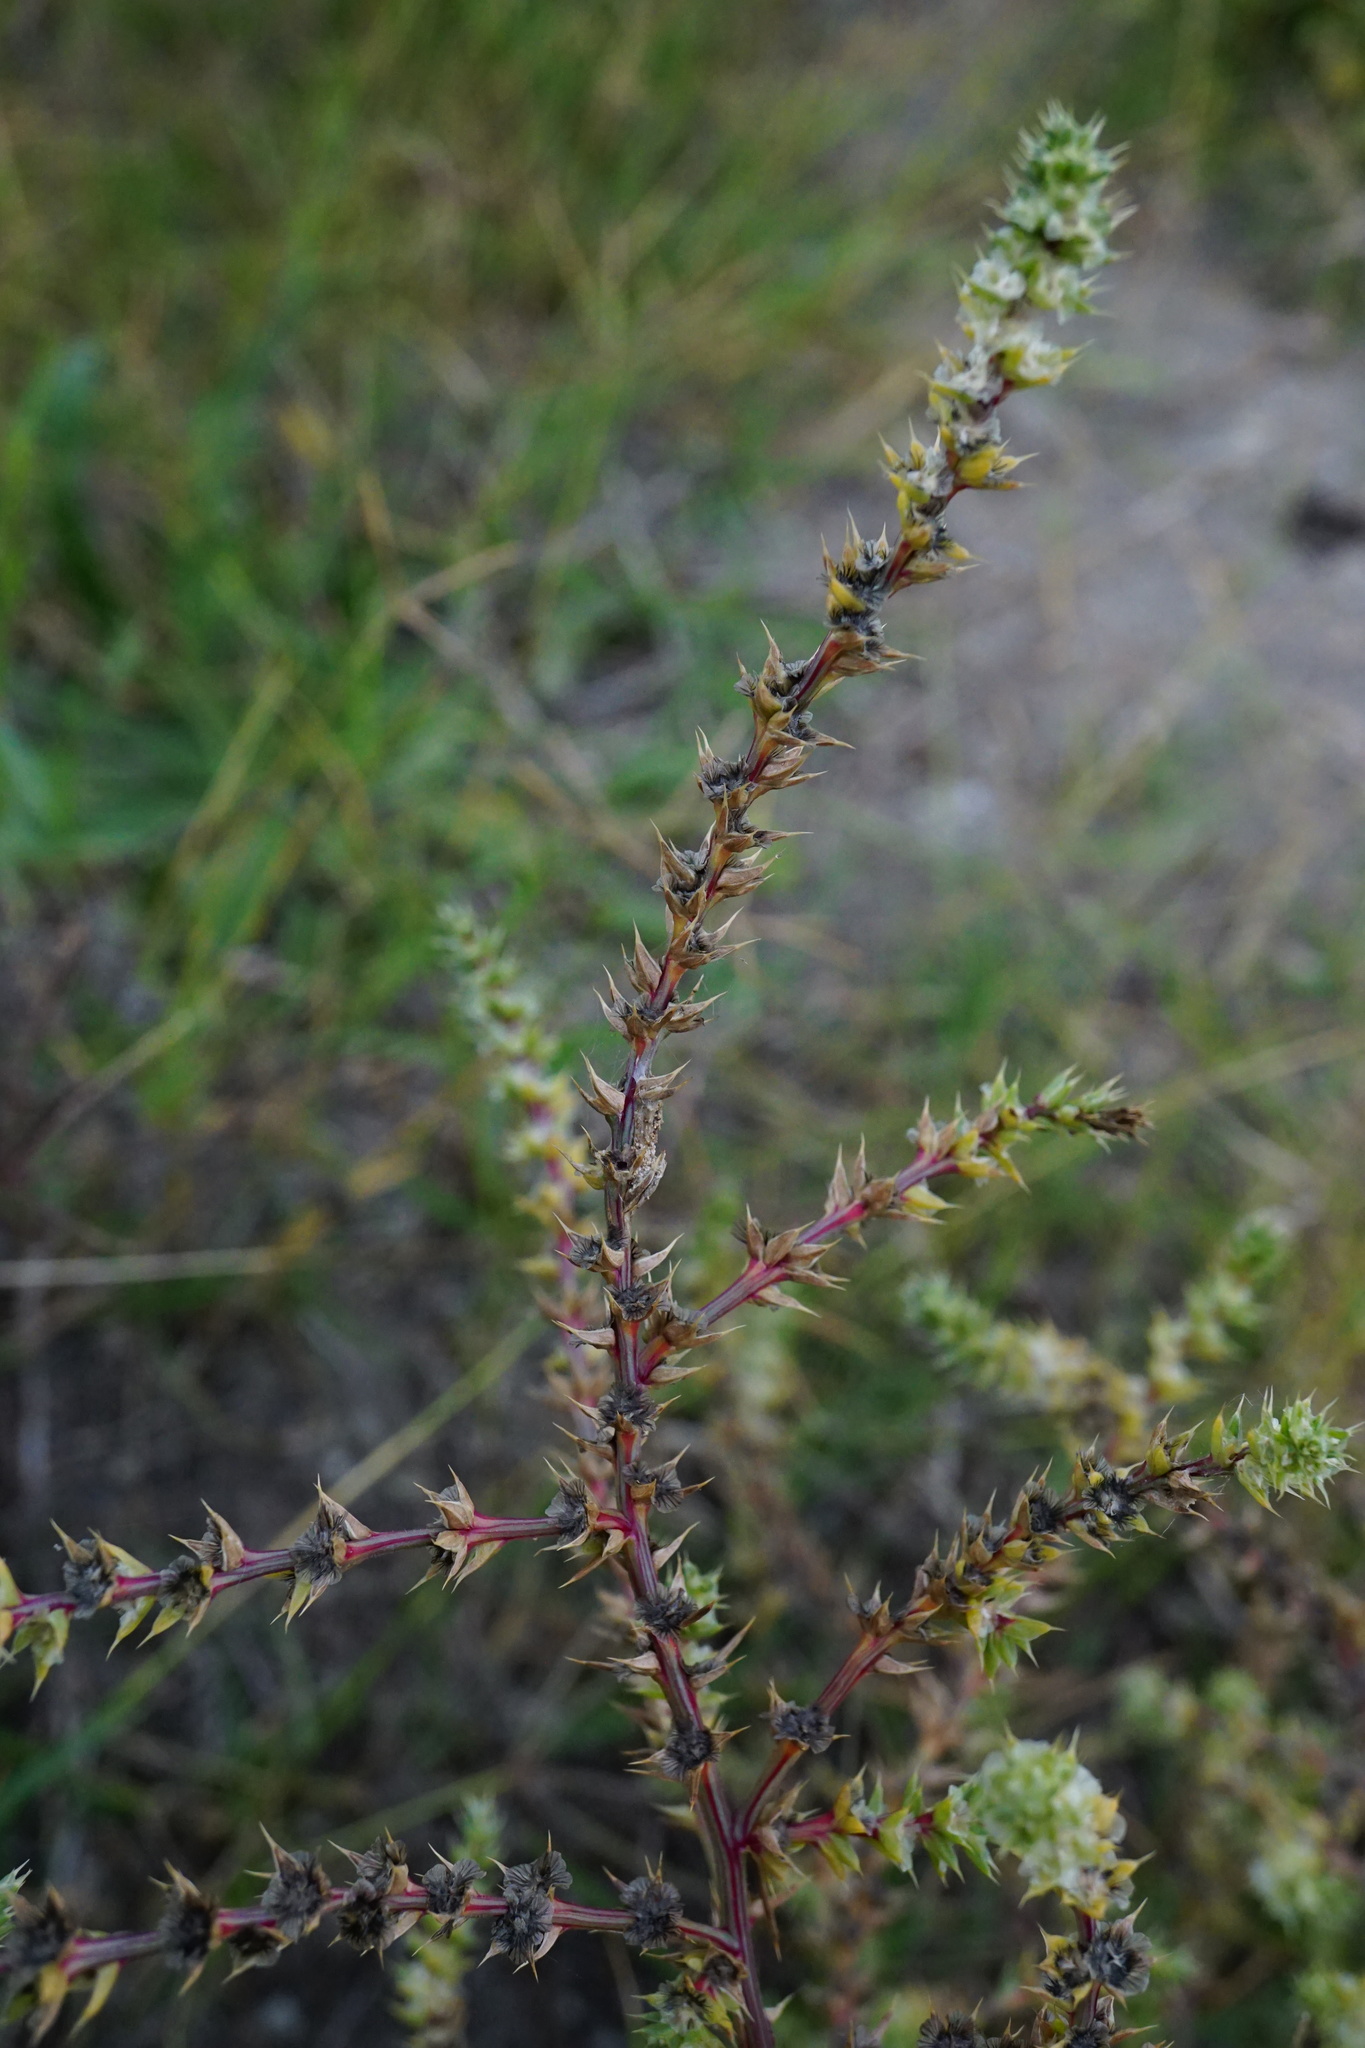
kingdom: Plantae
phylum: Tracheophyta
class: Magnoliopsida
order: Caryophyllales
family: Amaranthaceae
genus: Salsola
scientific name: Salsola tragus
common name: Prickly russian thistle
